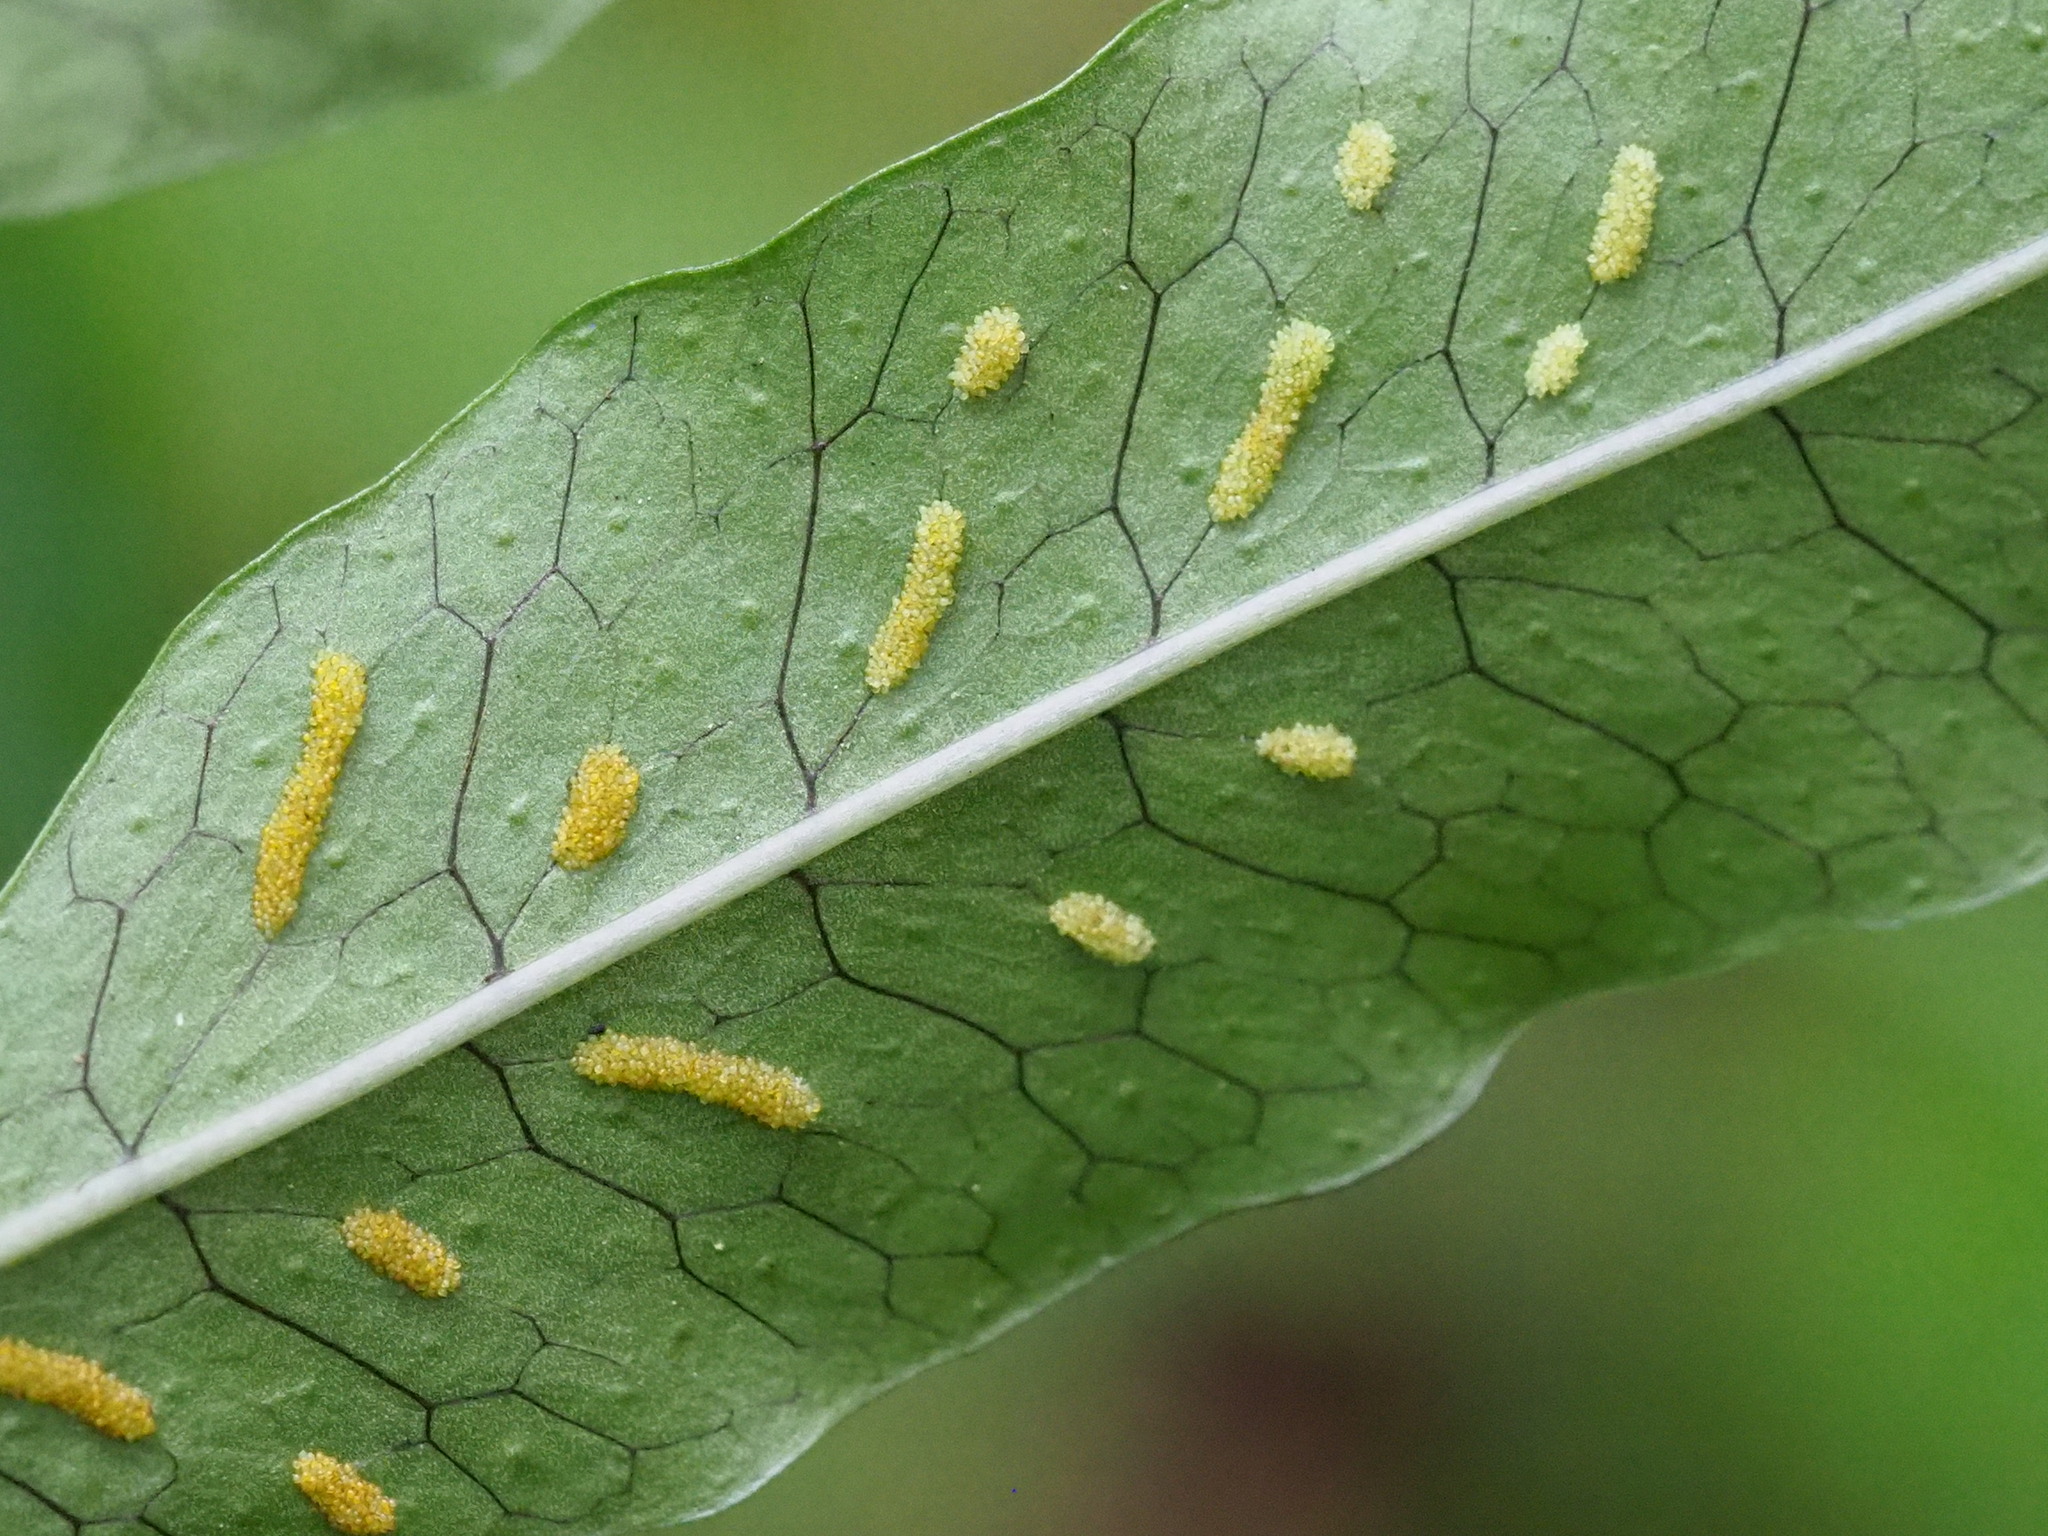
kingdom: Plantae
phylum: Tracheophyta
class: Polypodiopsida
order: Polypodiales
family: Polypodiaceae
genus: Leptochilus
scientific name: Leptochilus ellipticus
